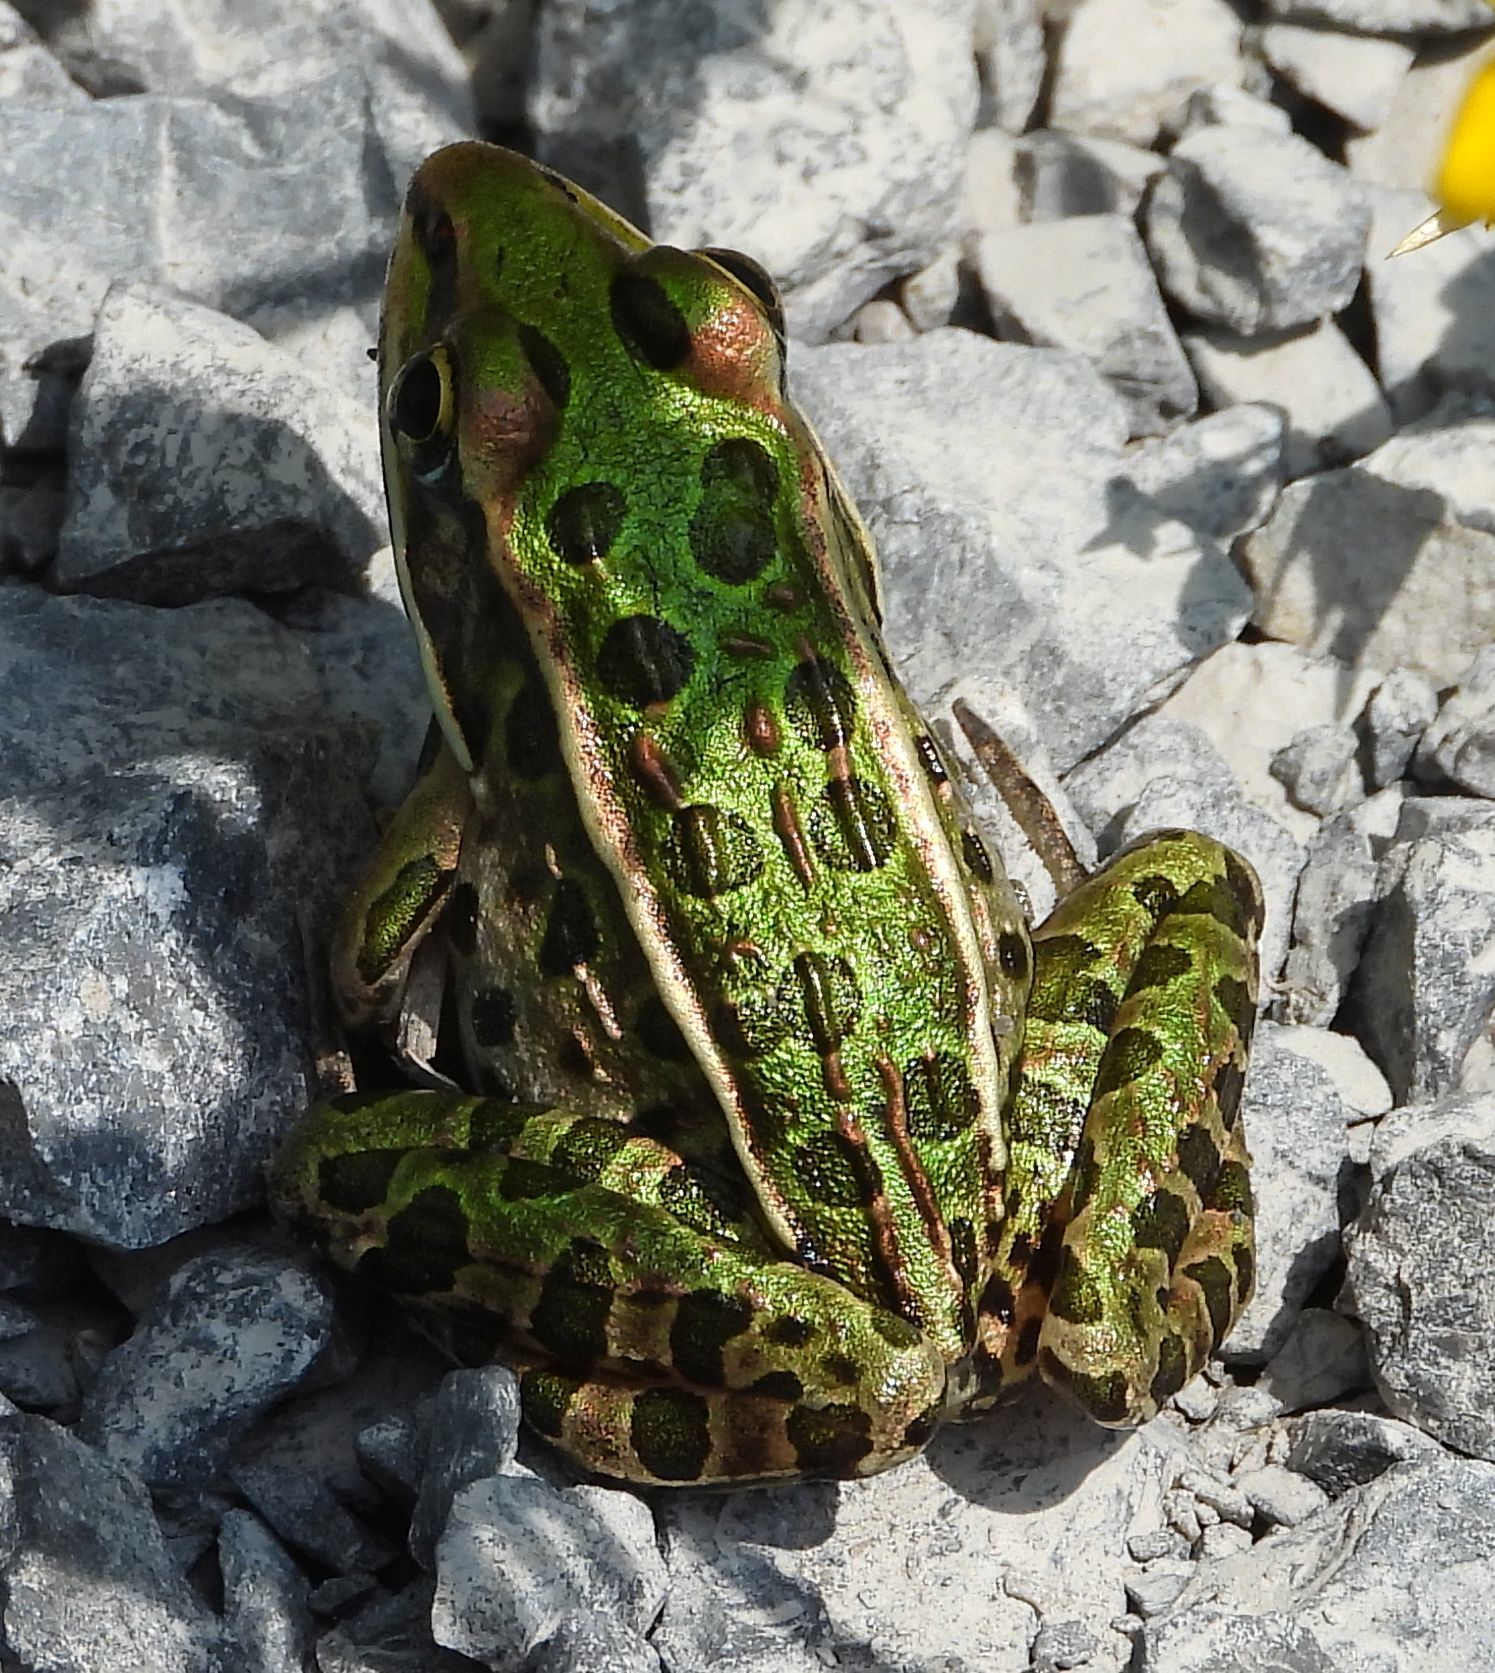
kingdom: Animalia
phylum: Chordata
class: Amphibia
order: Anura
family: Ranidae
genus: Lithobates
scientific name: Lithobates pipiens
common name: Northern leopard frog
